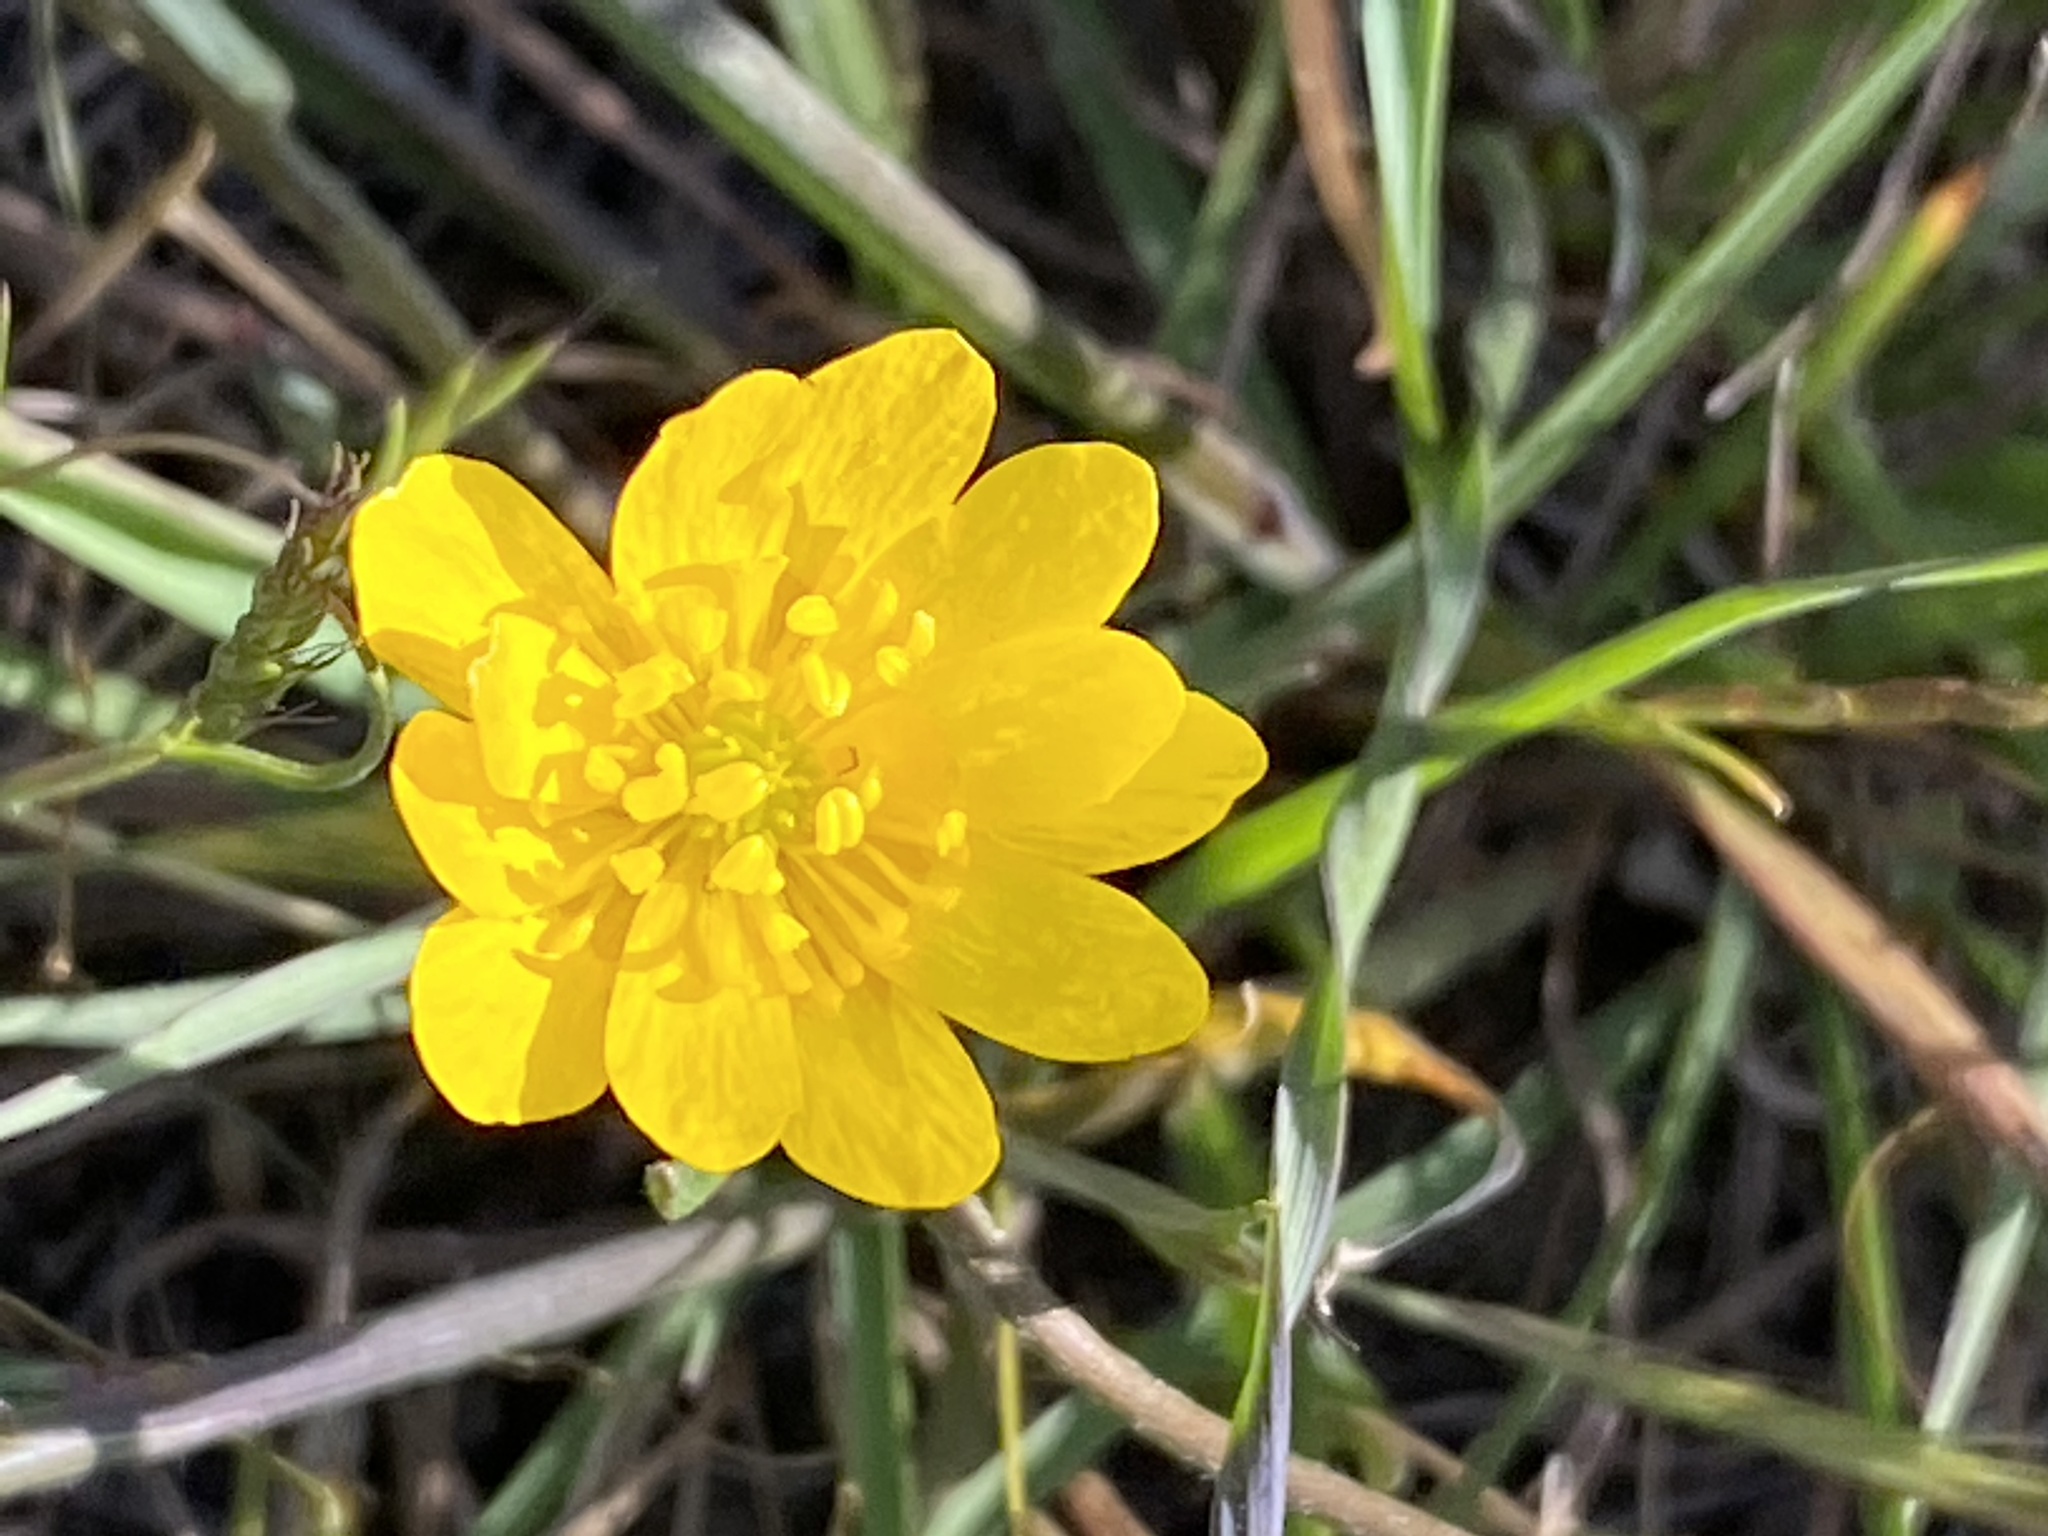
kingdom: Plantae
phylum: Tracheophyta
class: Magnoliopsida
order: Ranunculales
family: Ranunculaceae
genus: Ranunculus
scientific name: Ranunculus californicus
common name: California buttercup
